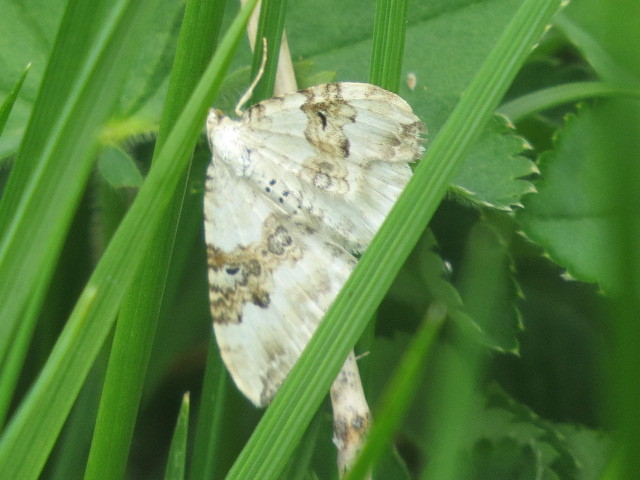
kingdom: Animalia
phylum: Arthropoda
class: Insecta
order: Lepidoptera
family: Geometridae
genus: Xanthorhoe
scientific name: Xanthorhoe montanata
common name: Silver-ground carpet
